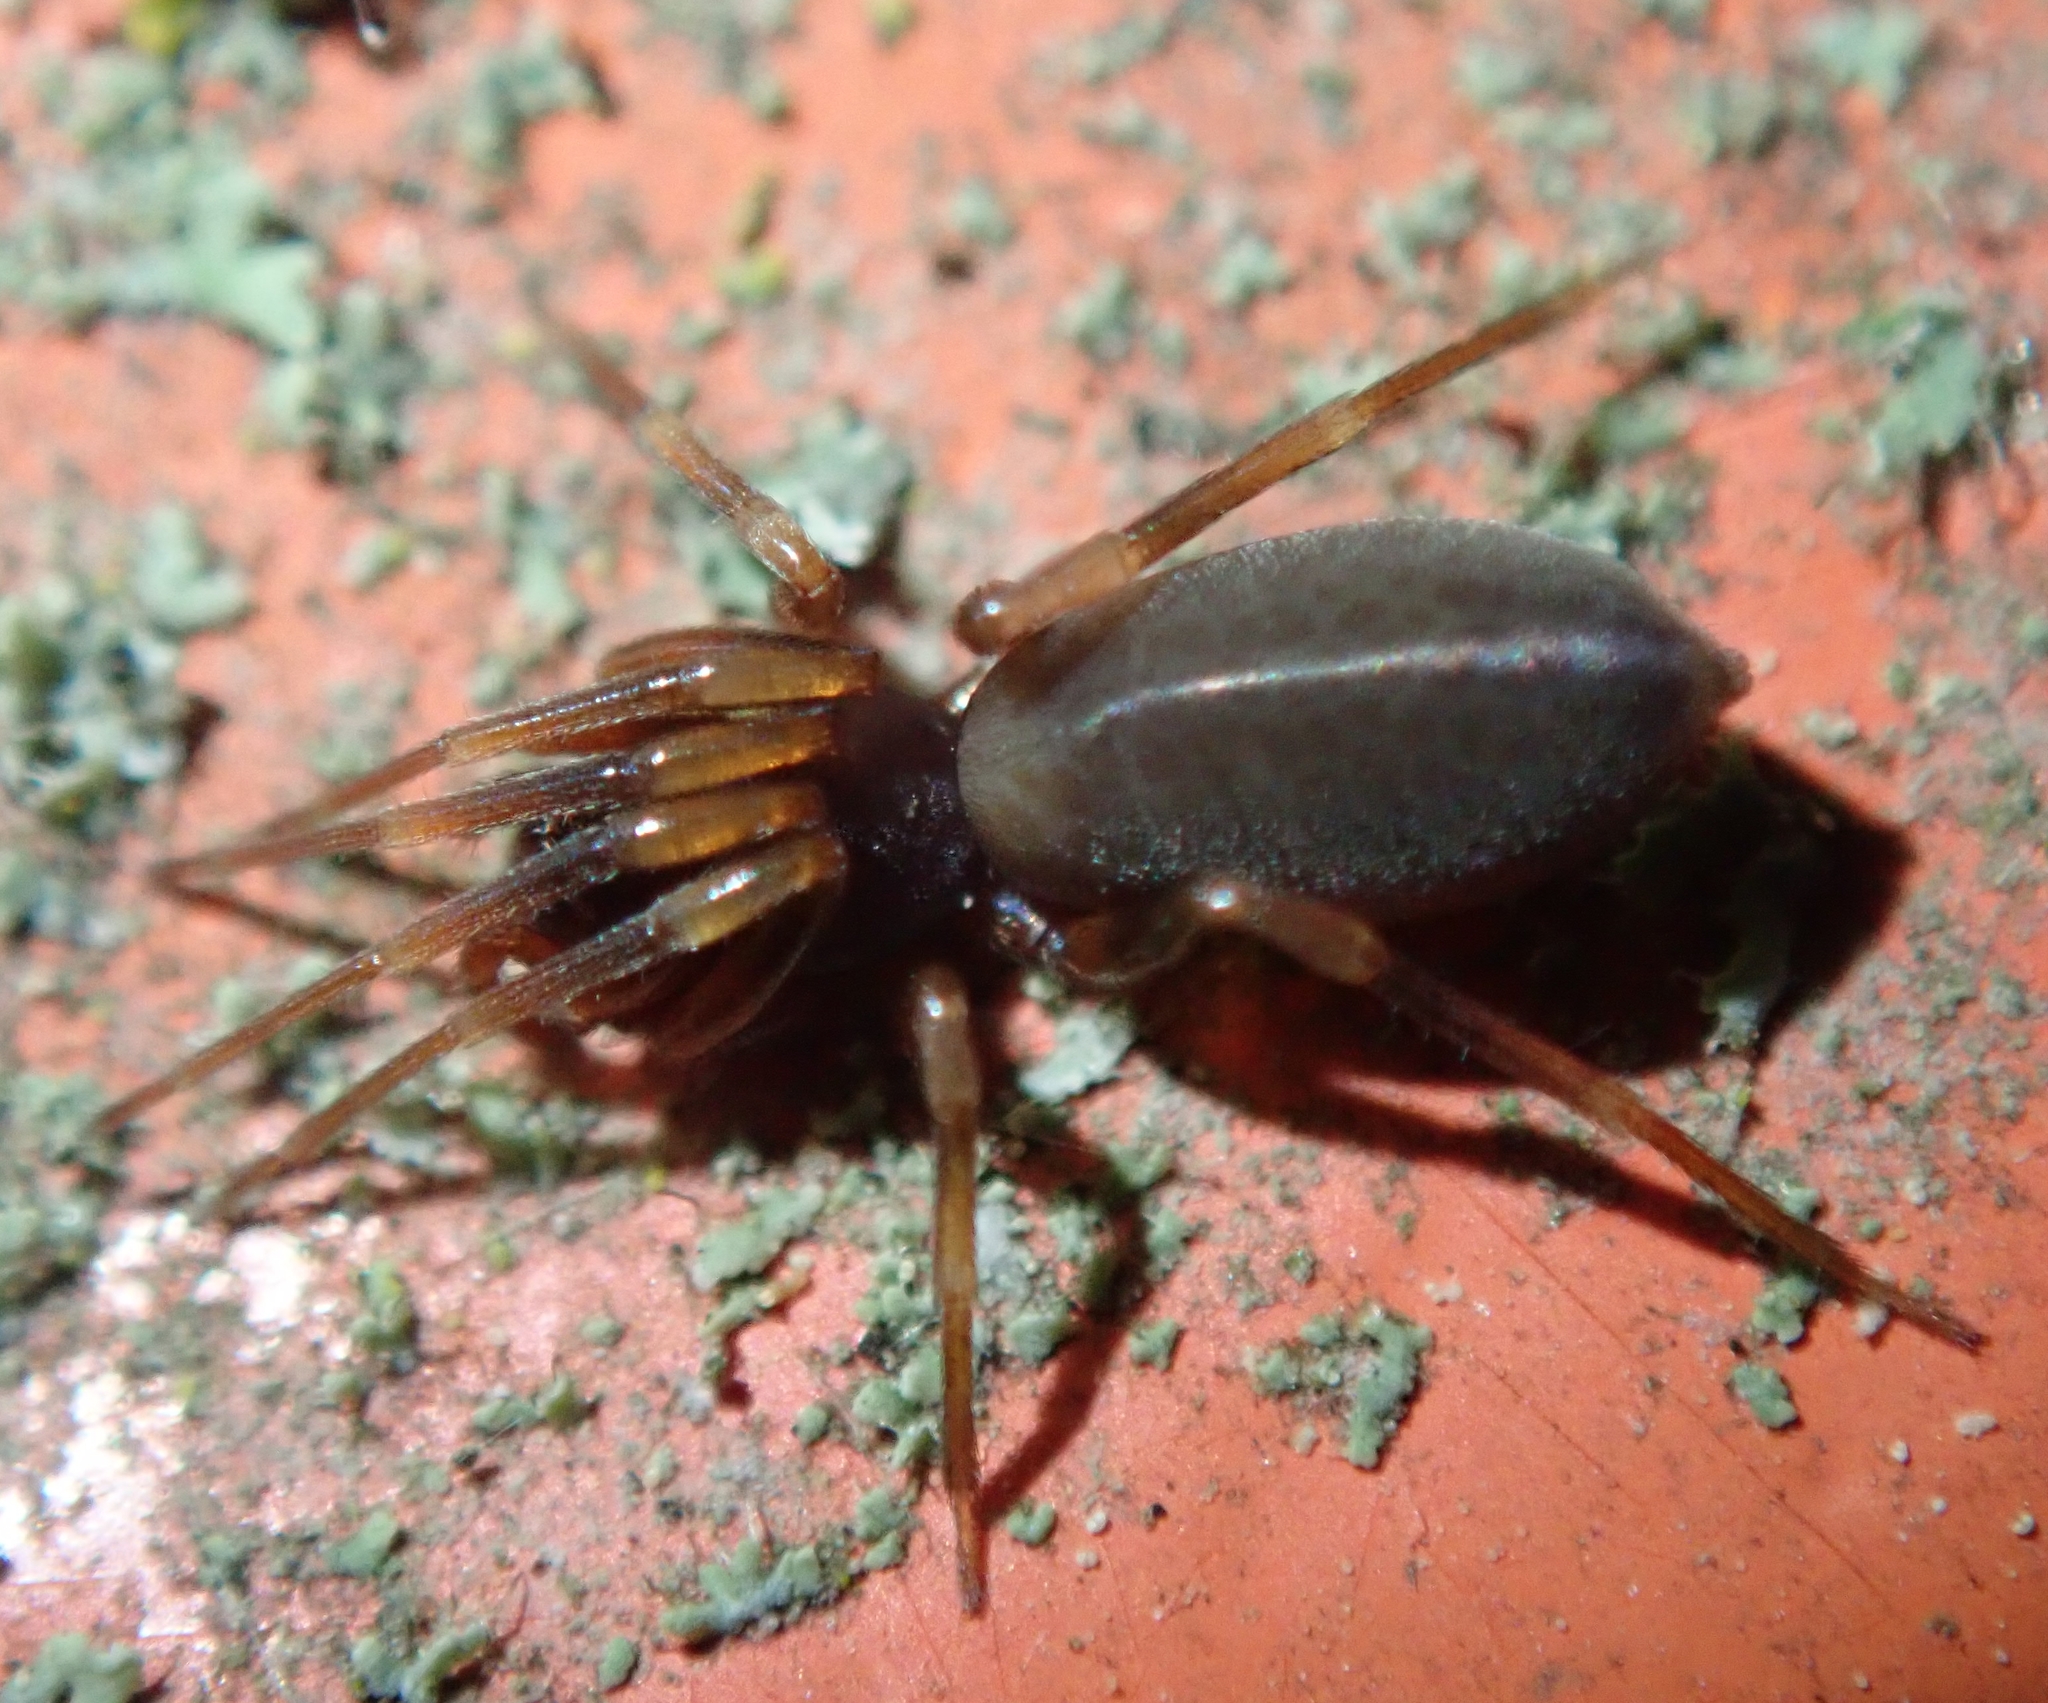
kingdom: Animalia
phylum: Arthropoda
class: Arachnida
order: Araneae
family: Dysderidae
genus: Harpactea
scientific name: Harpactea hombergi
